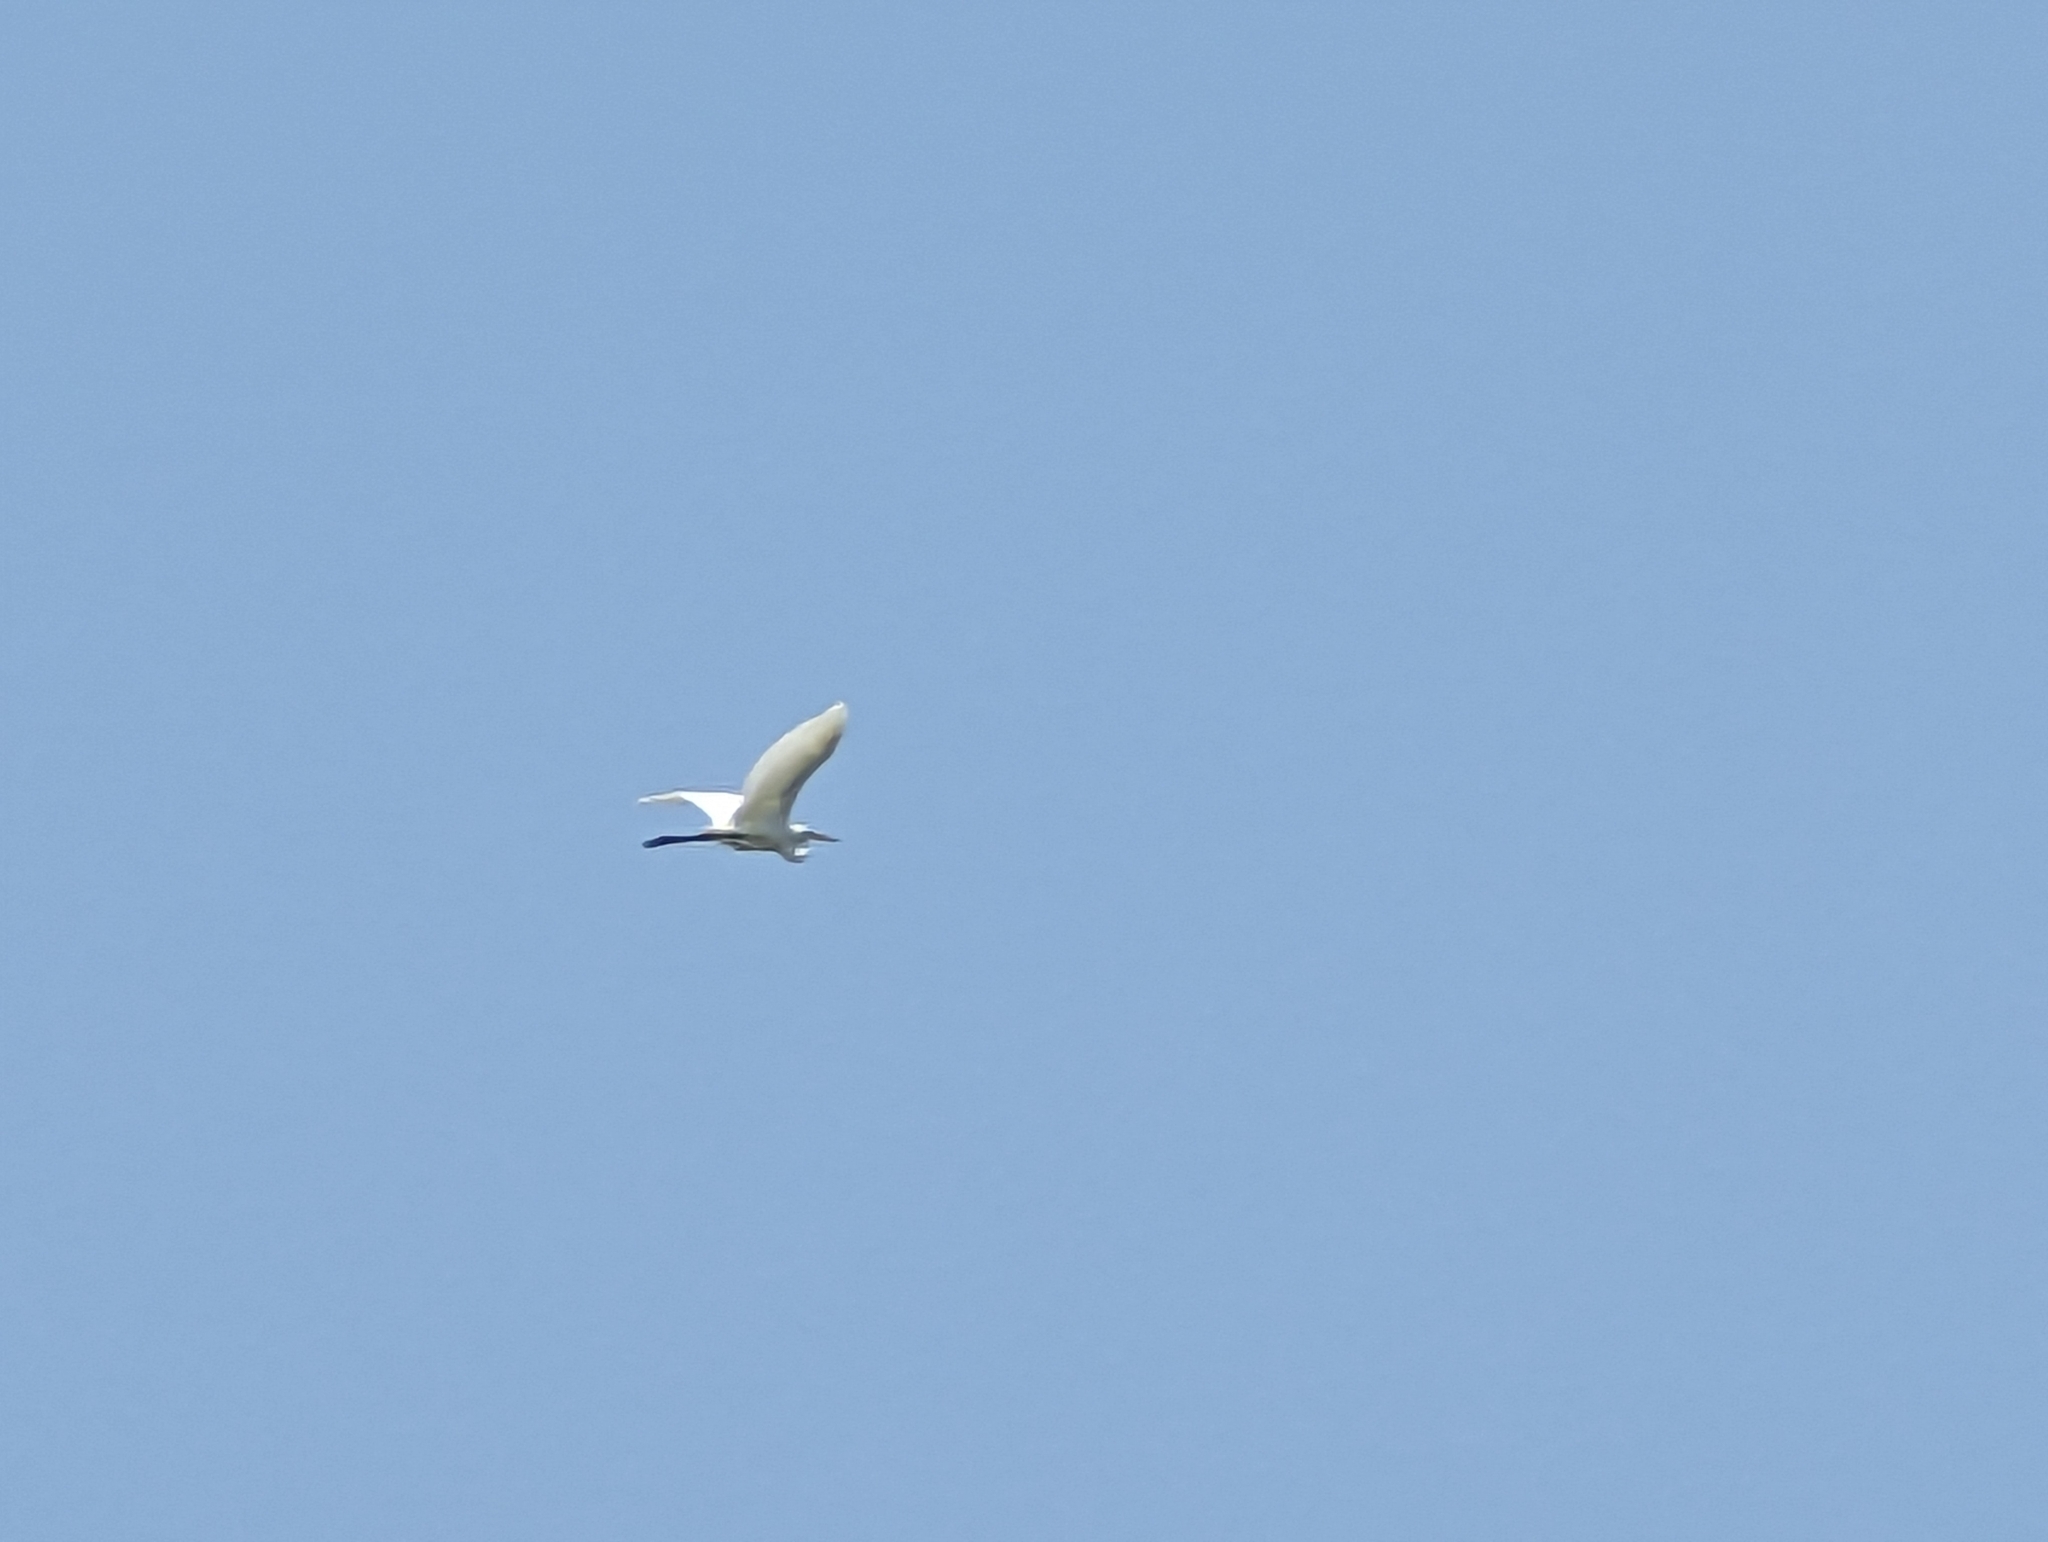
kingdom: Animalia
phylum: Chordata
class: Aves
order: Pelecaniformes
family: Ardeidae
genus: Ardea
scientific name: Ardea alba
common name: Great egret
